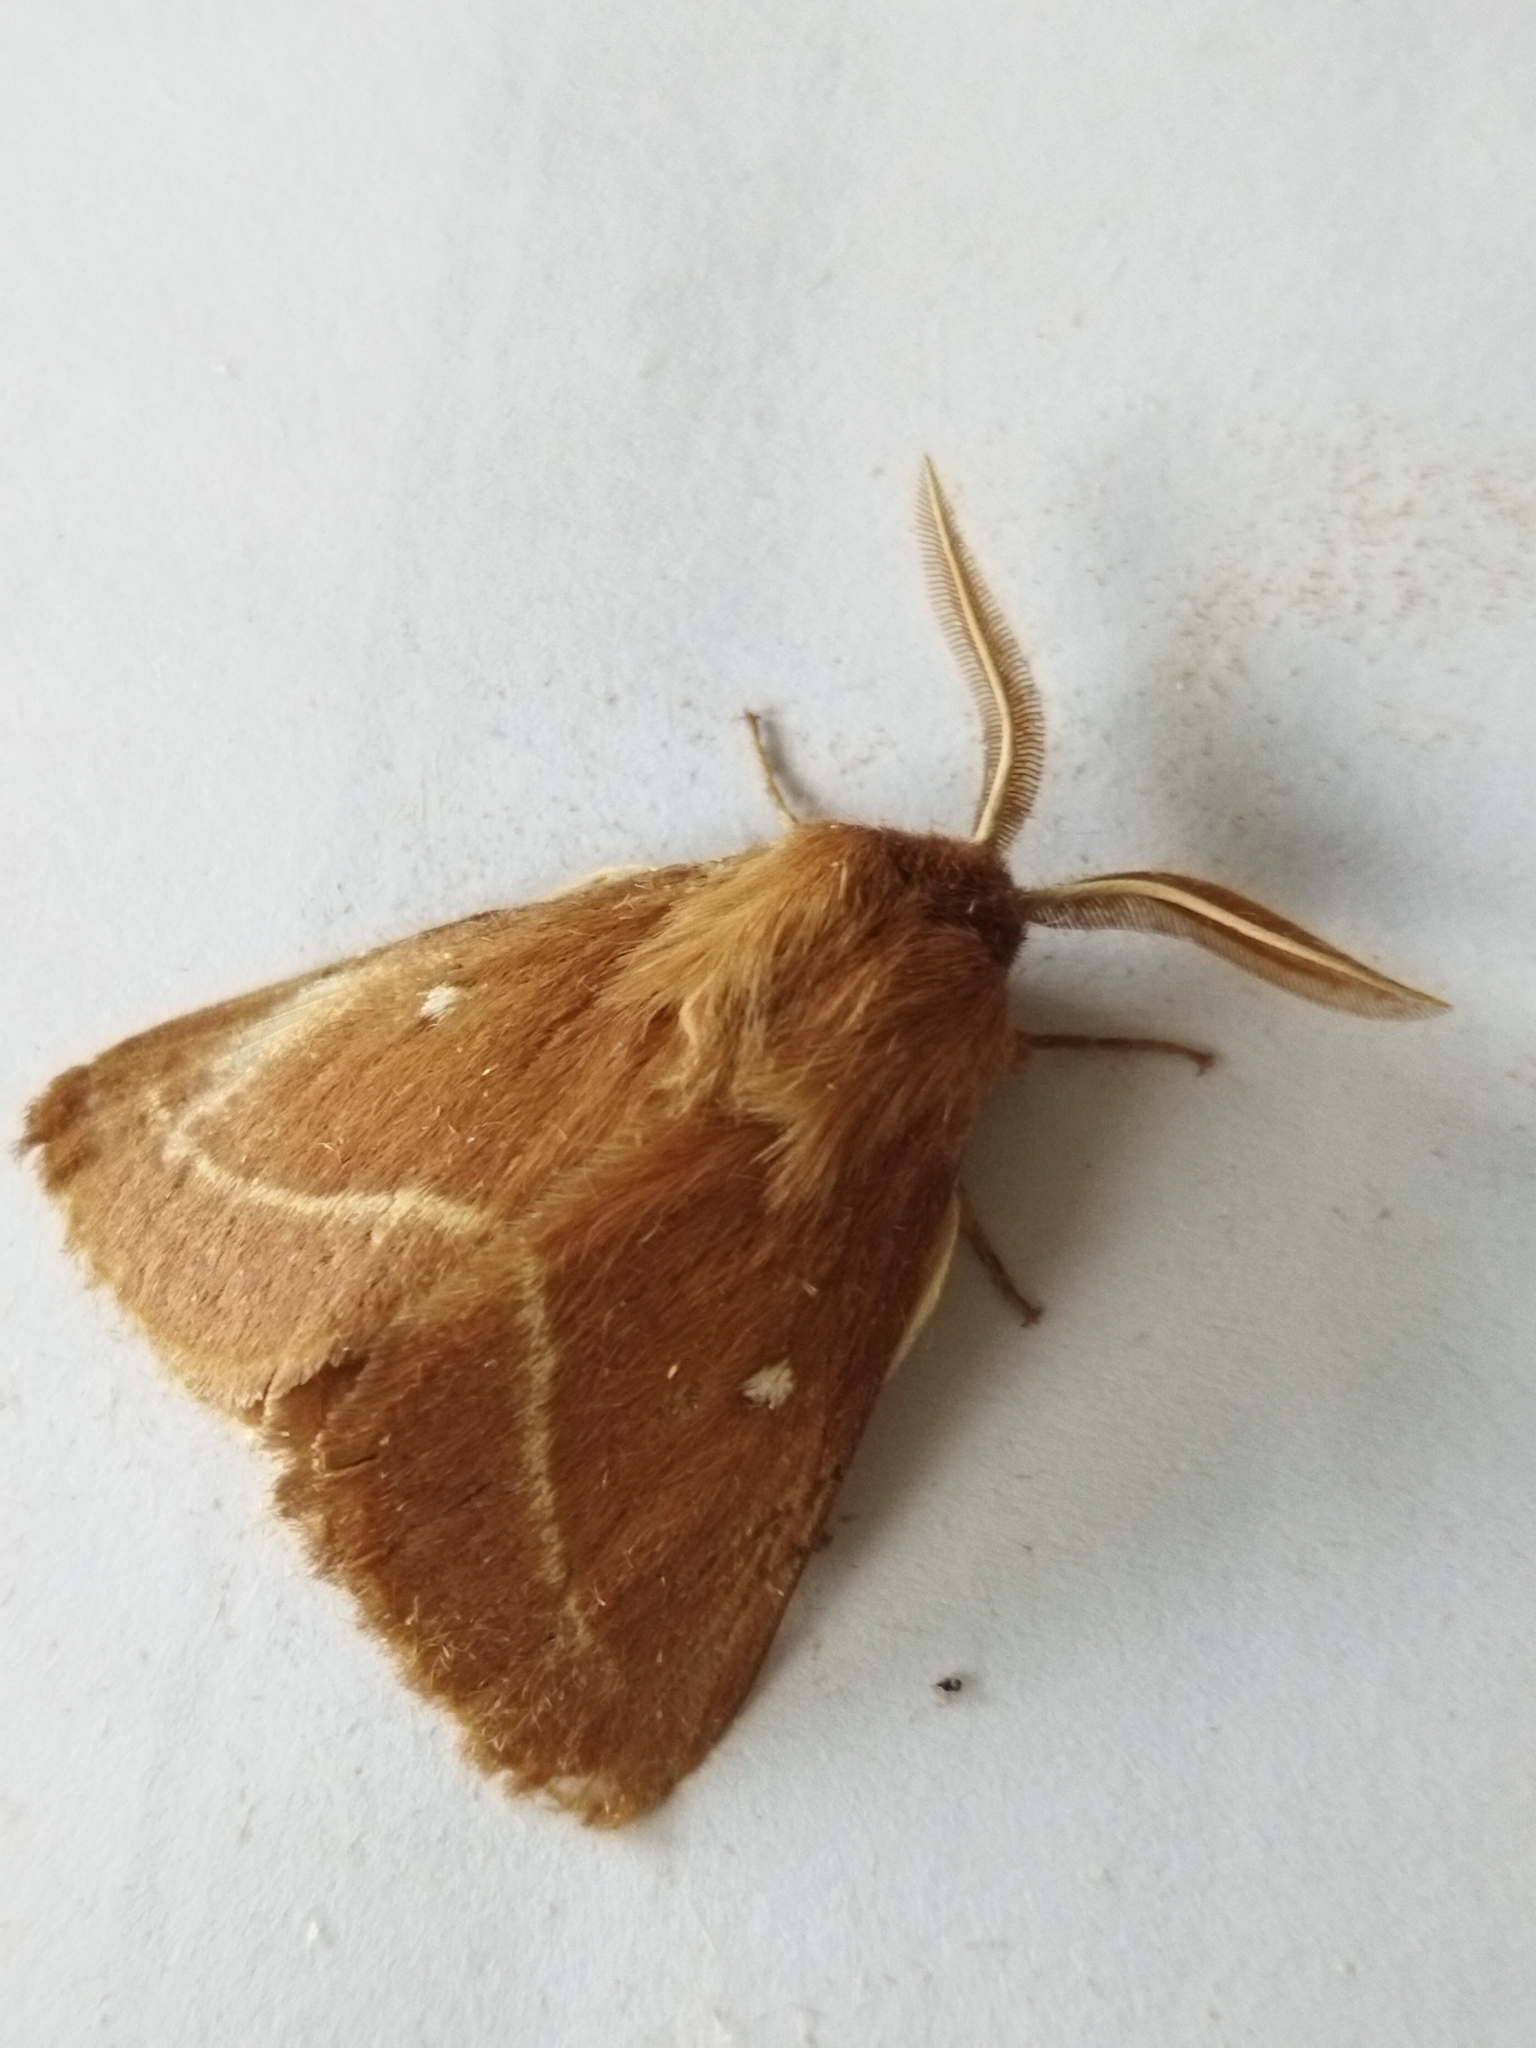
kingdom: Animalia
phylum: Arthropoda
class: Insecta
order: Lepidoptera
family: Lasiocampidae
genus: Lasiocampa
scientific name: Lasiocampa trifolii
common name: Grass eggar
